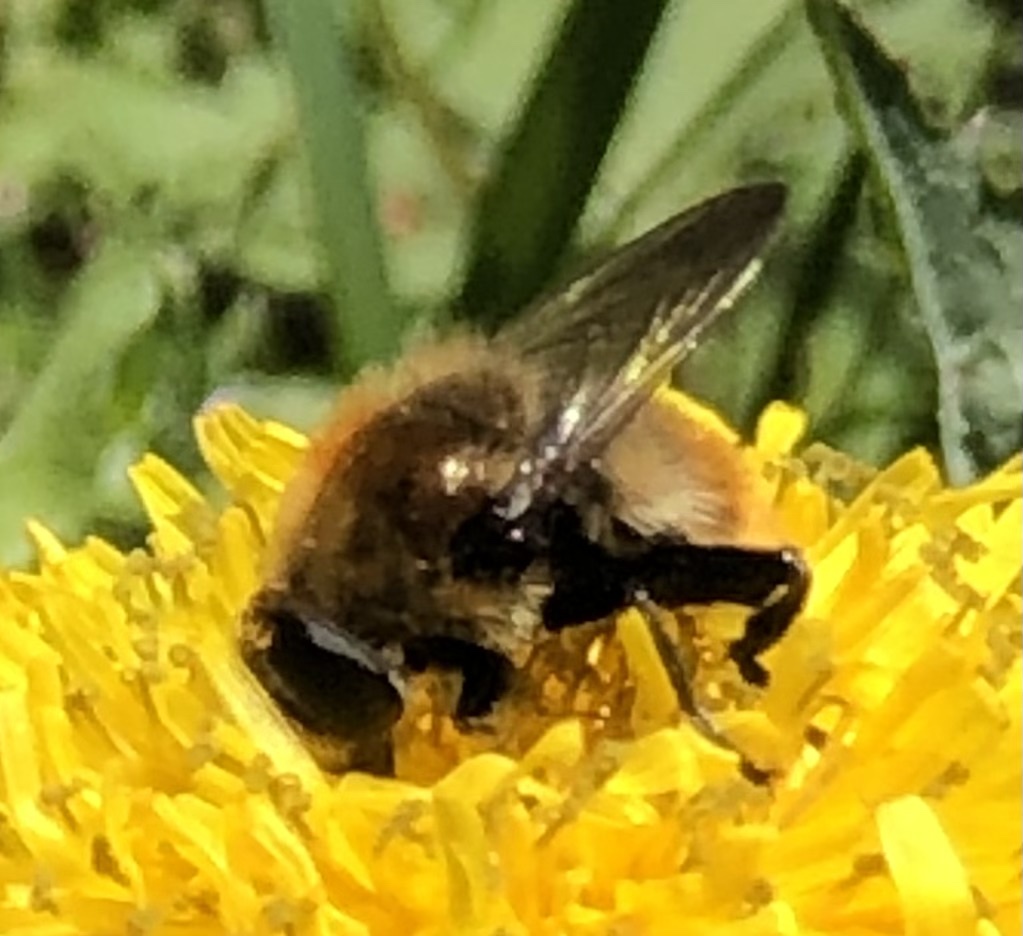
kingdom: Animalia
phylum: Arthropoda
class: Insecta
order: Diptera
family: Syrphidae
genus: Merodon
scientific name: Merodon equestris
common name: Greater bulb-fly
